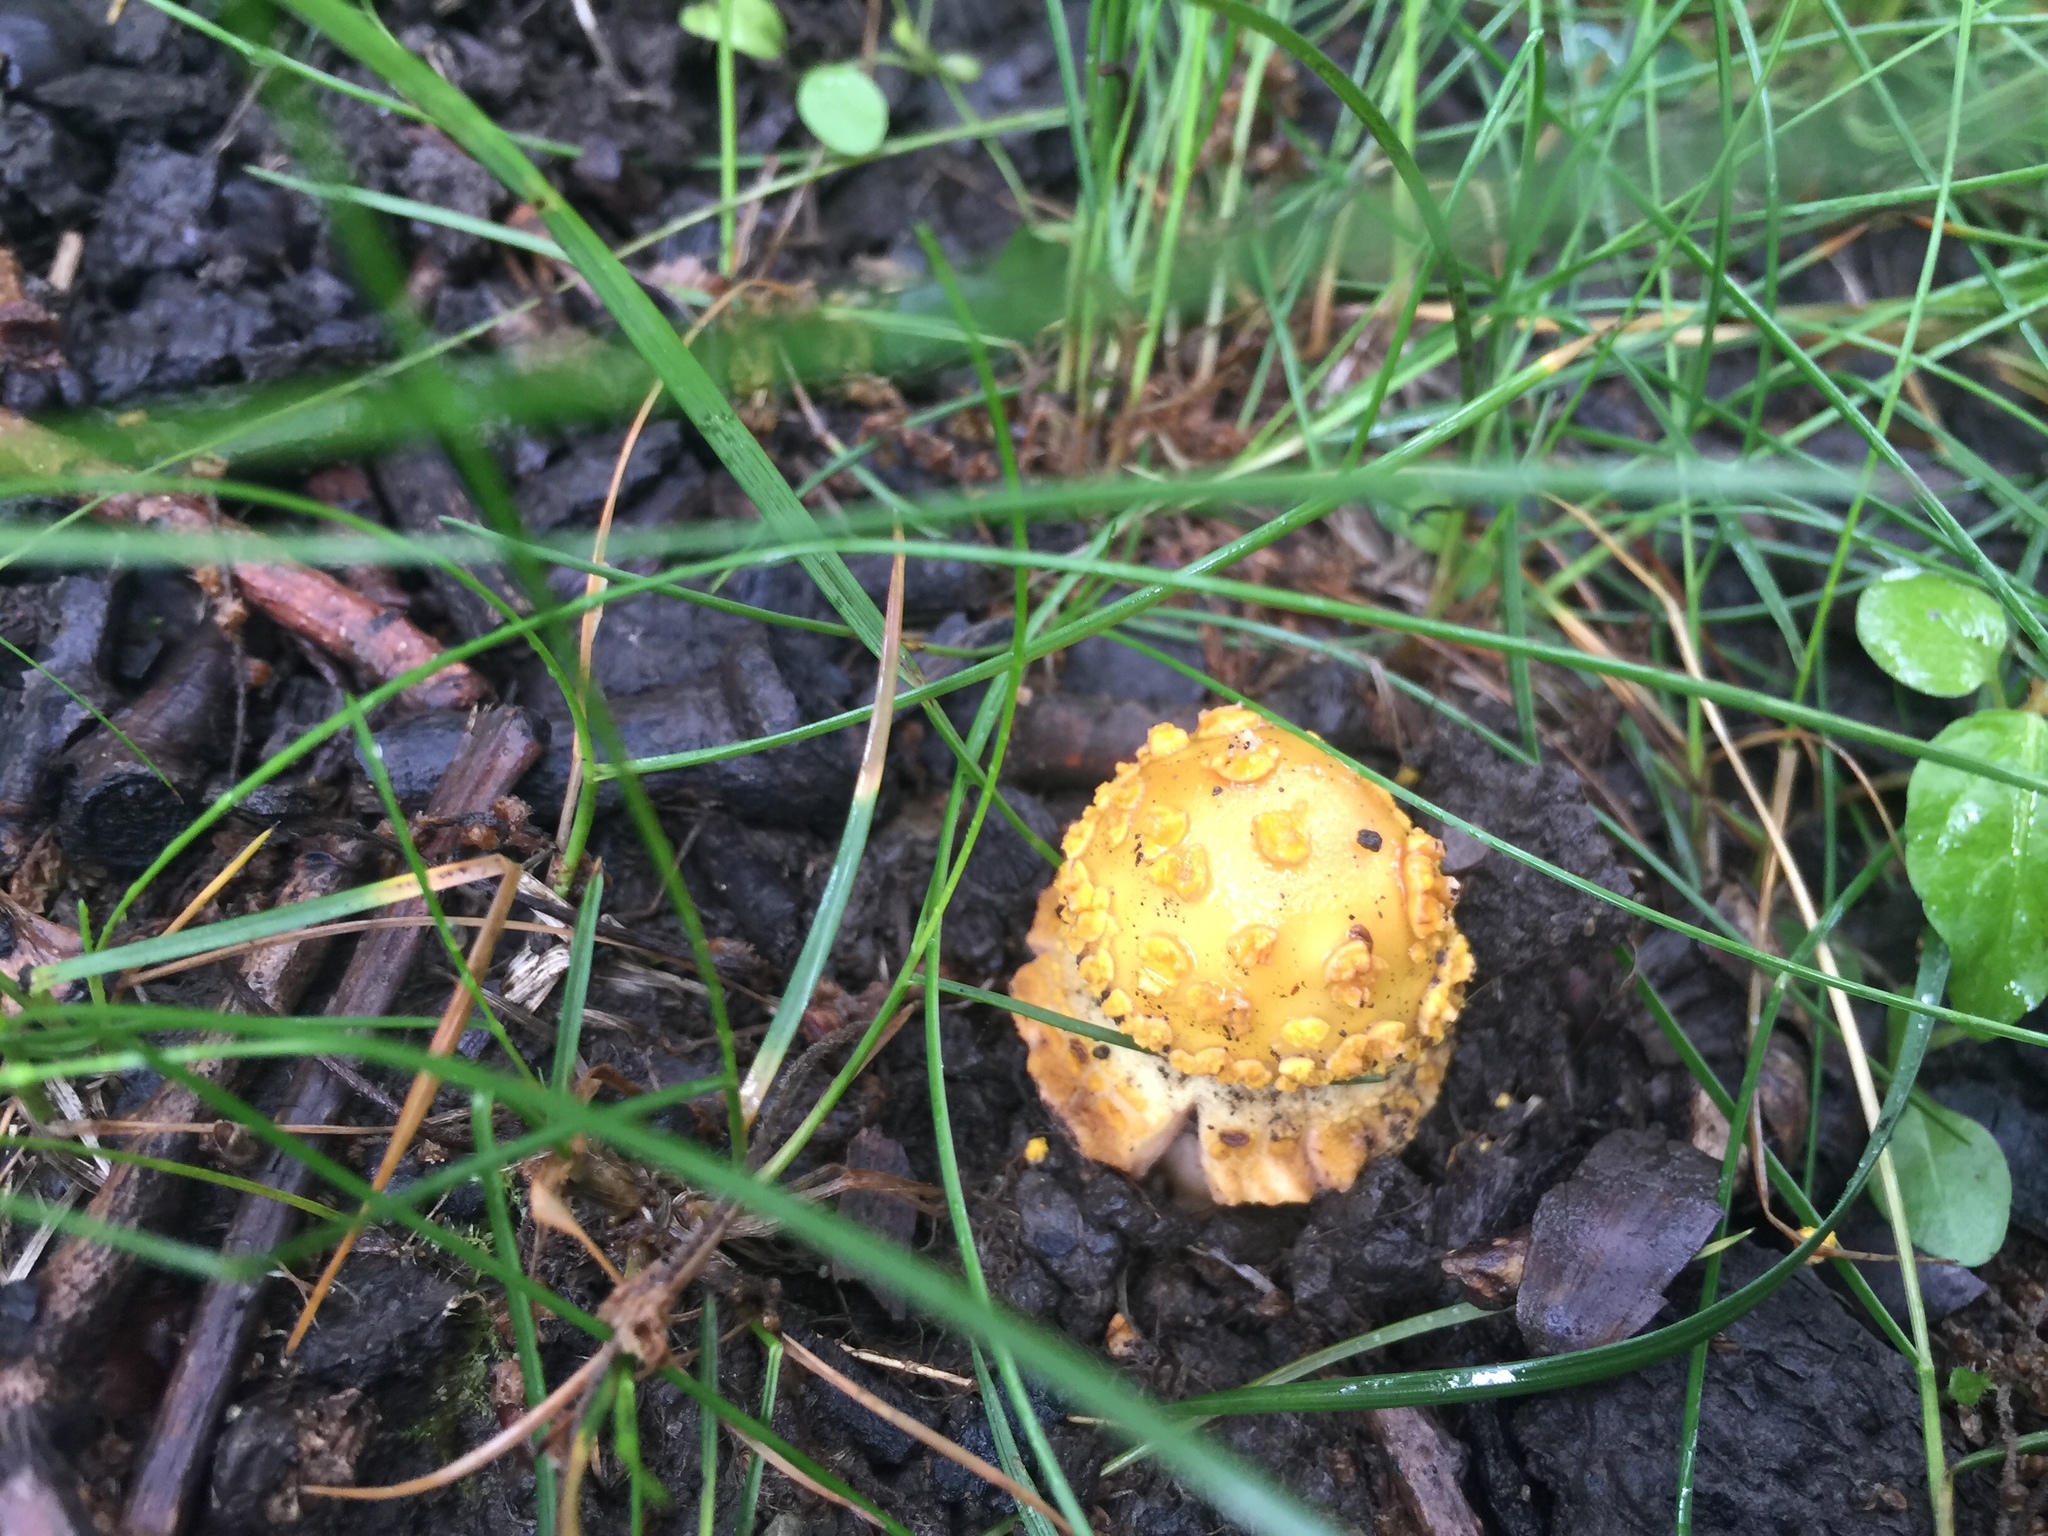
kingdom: Fungi
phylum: Basidiomycota
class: Agaricomycetes
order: Agaricales
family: Amanitaceae
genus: Amanita
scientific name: Amanita flavoconia
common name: Yellow patches
